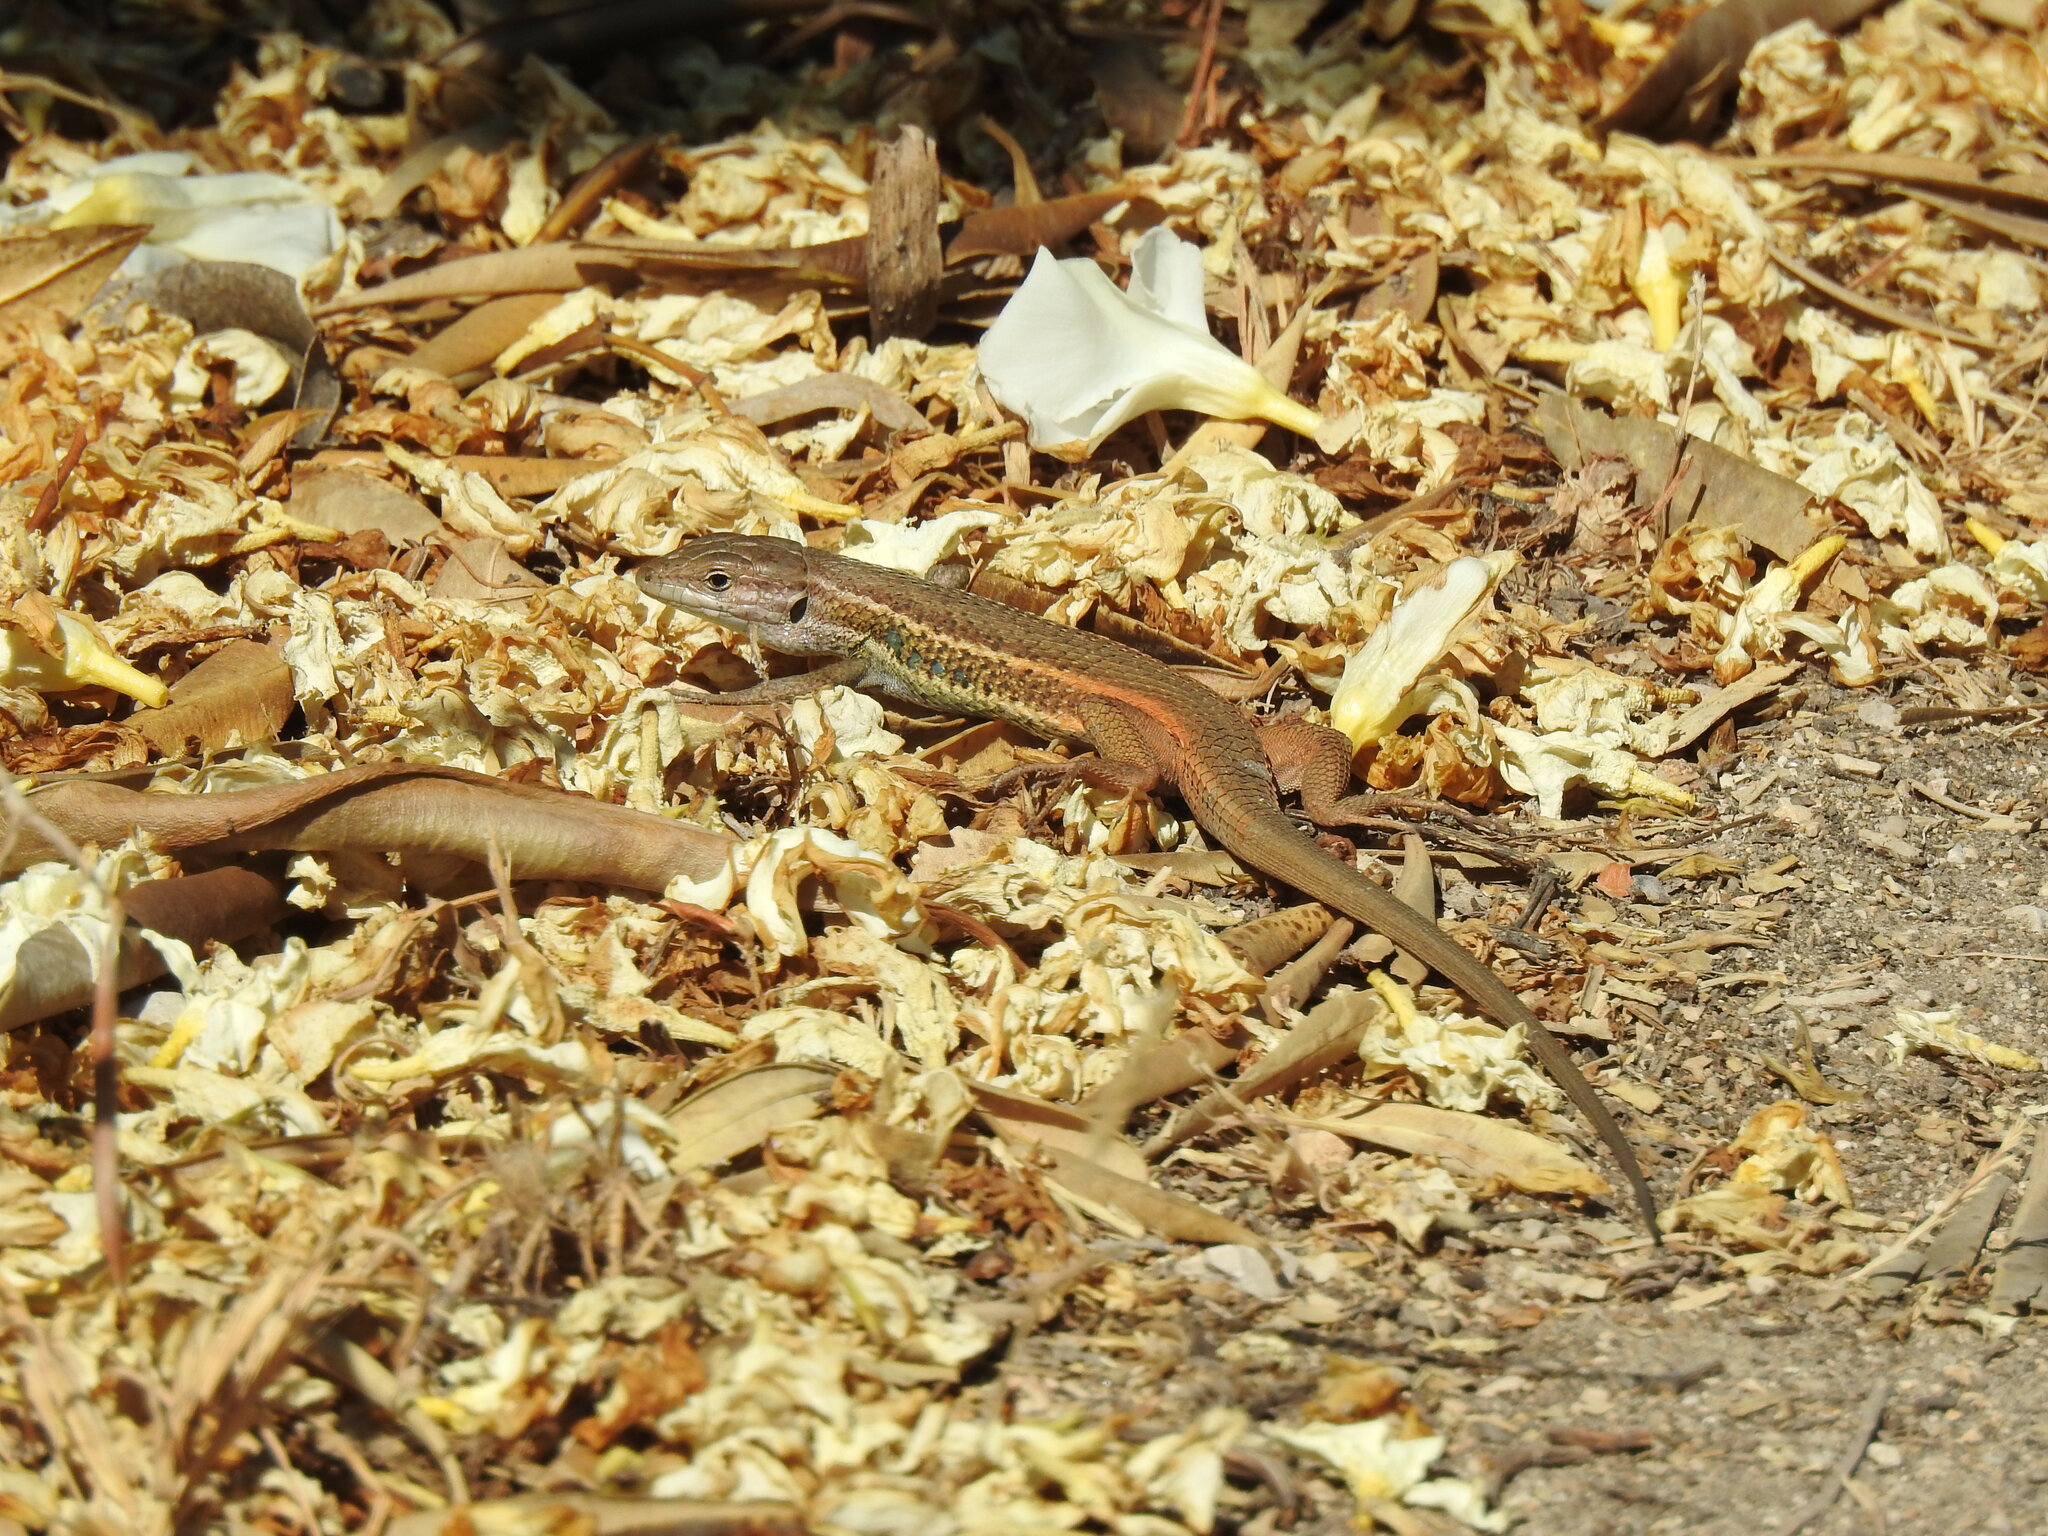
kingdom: Animalia
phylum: Chordata
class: Squamata
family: Lacertidae
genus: Psammodromus
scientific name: Psammodromus algirus
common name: Algerian psammodromus
